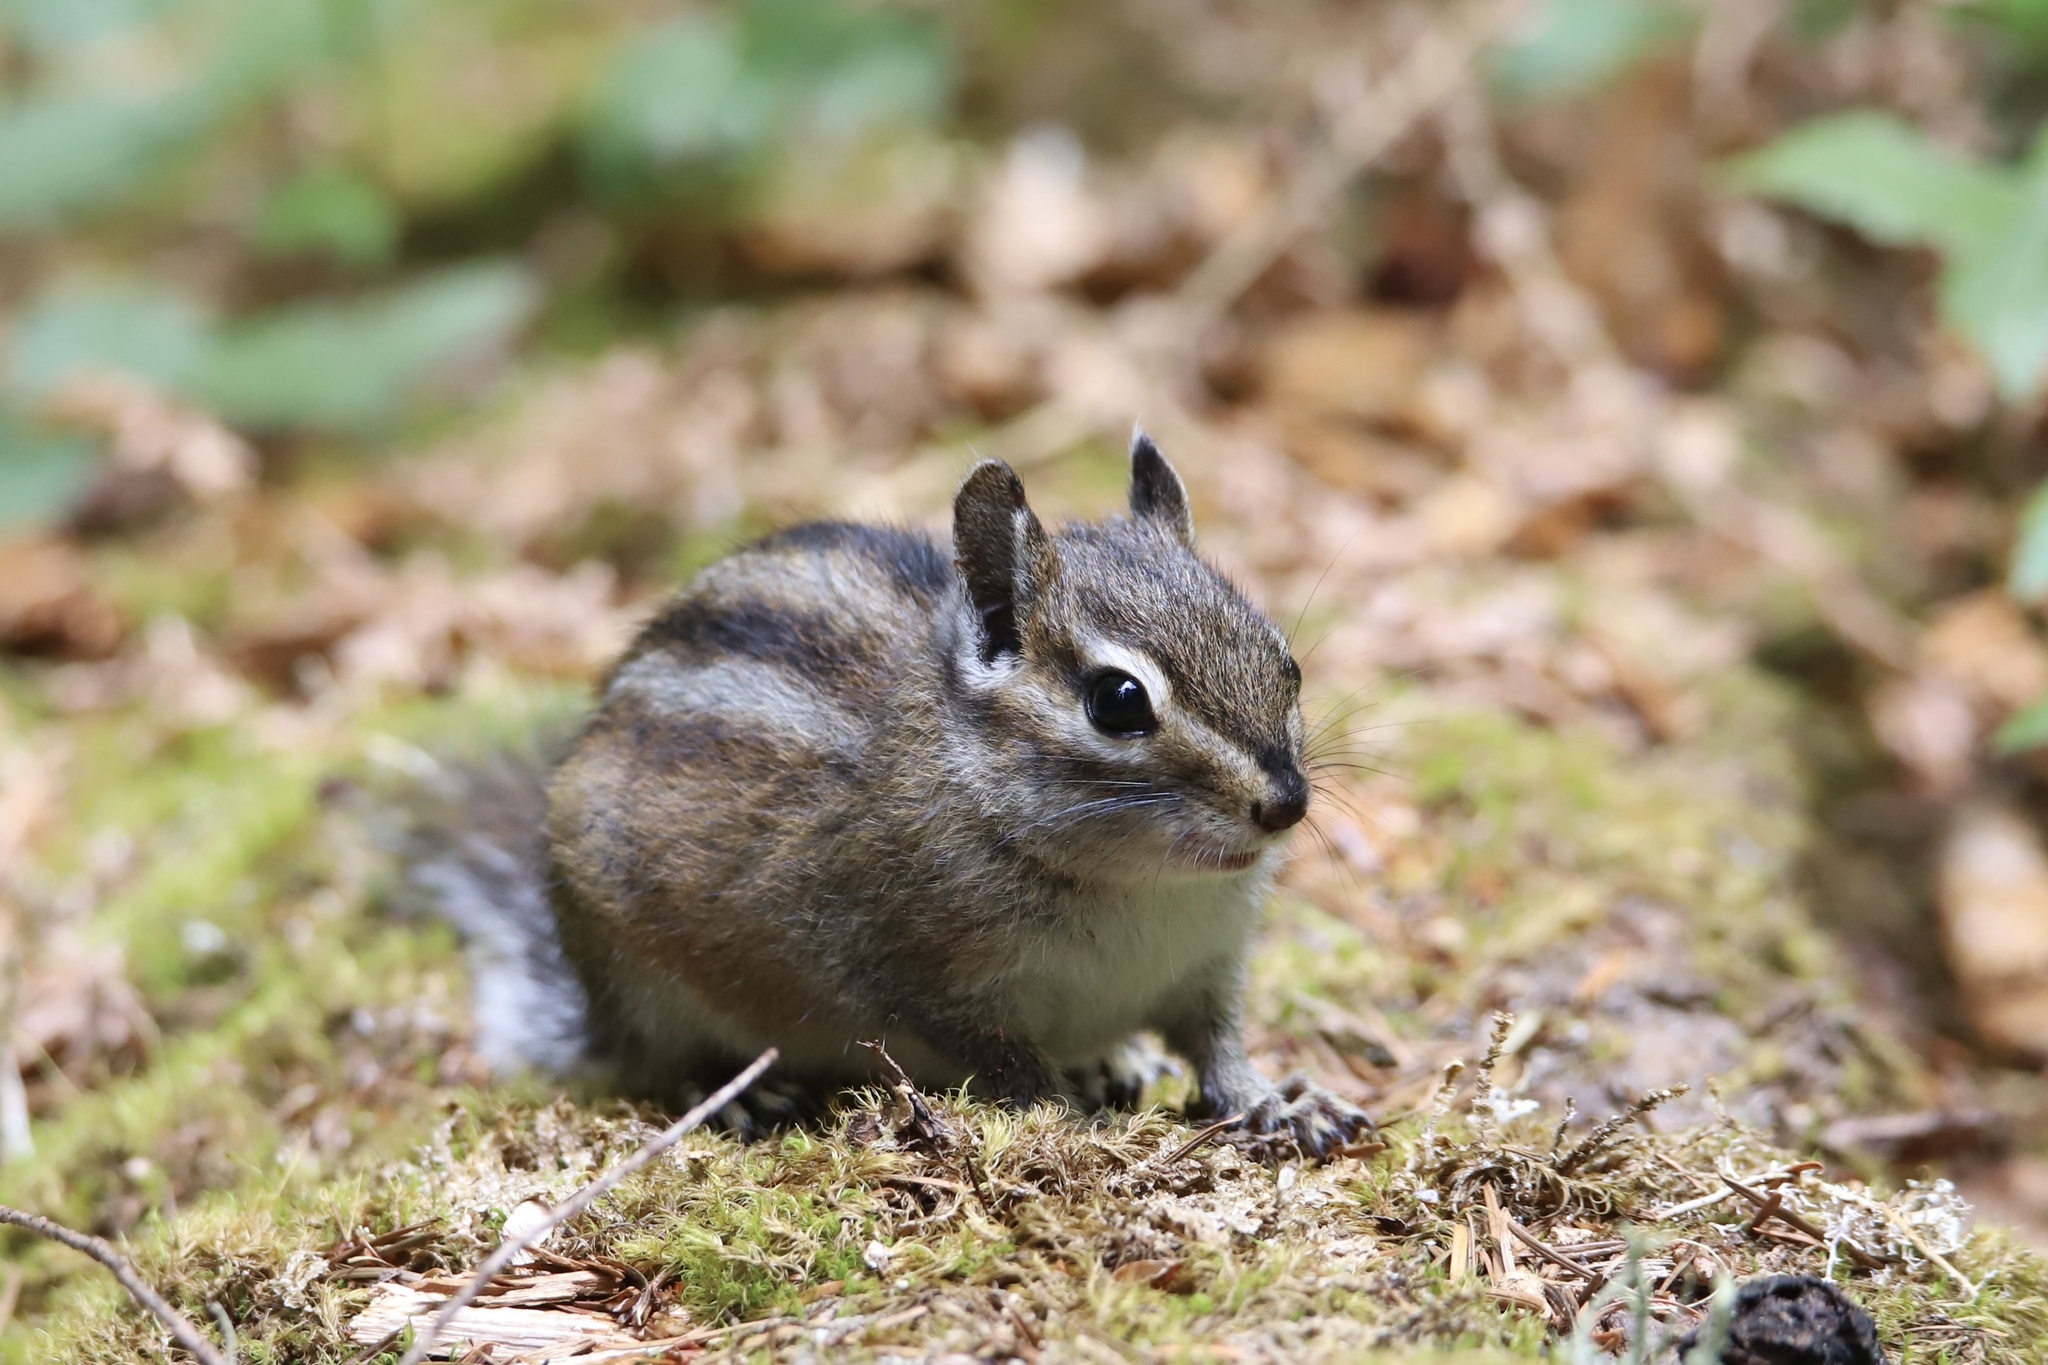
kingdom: Animalia
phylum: Chordata
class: Mammalia
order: Rodentia
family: Sciuridae
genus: Tamias
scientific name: Tamias townsendii
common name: Townsend's chipmunk
